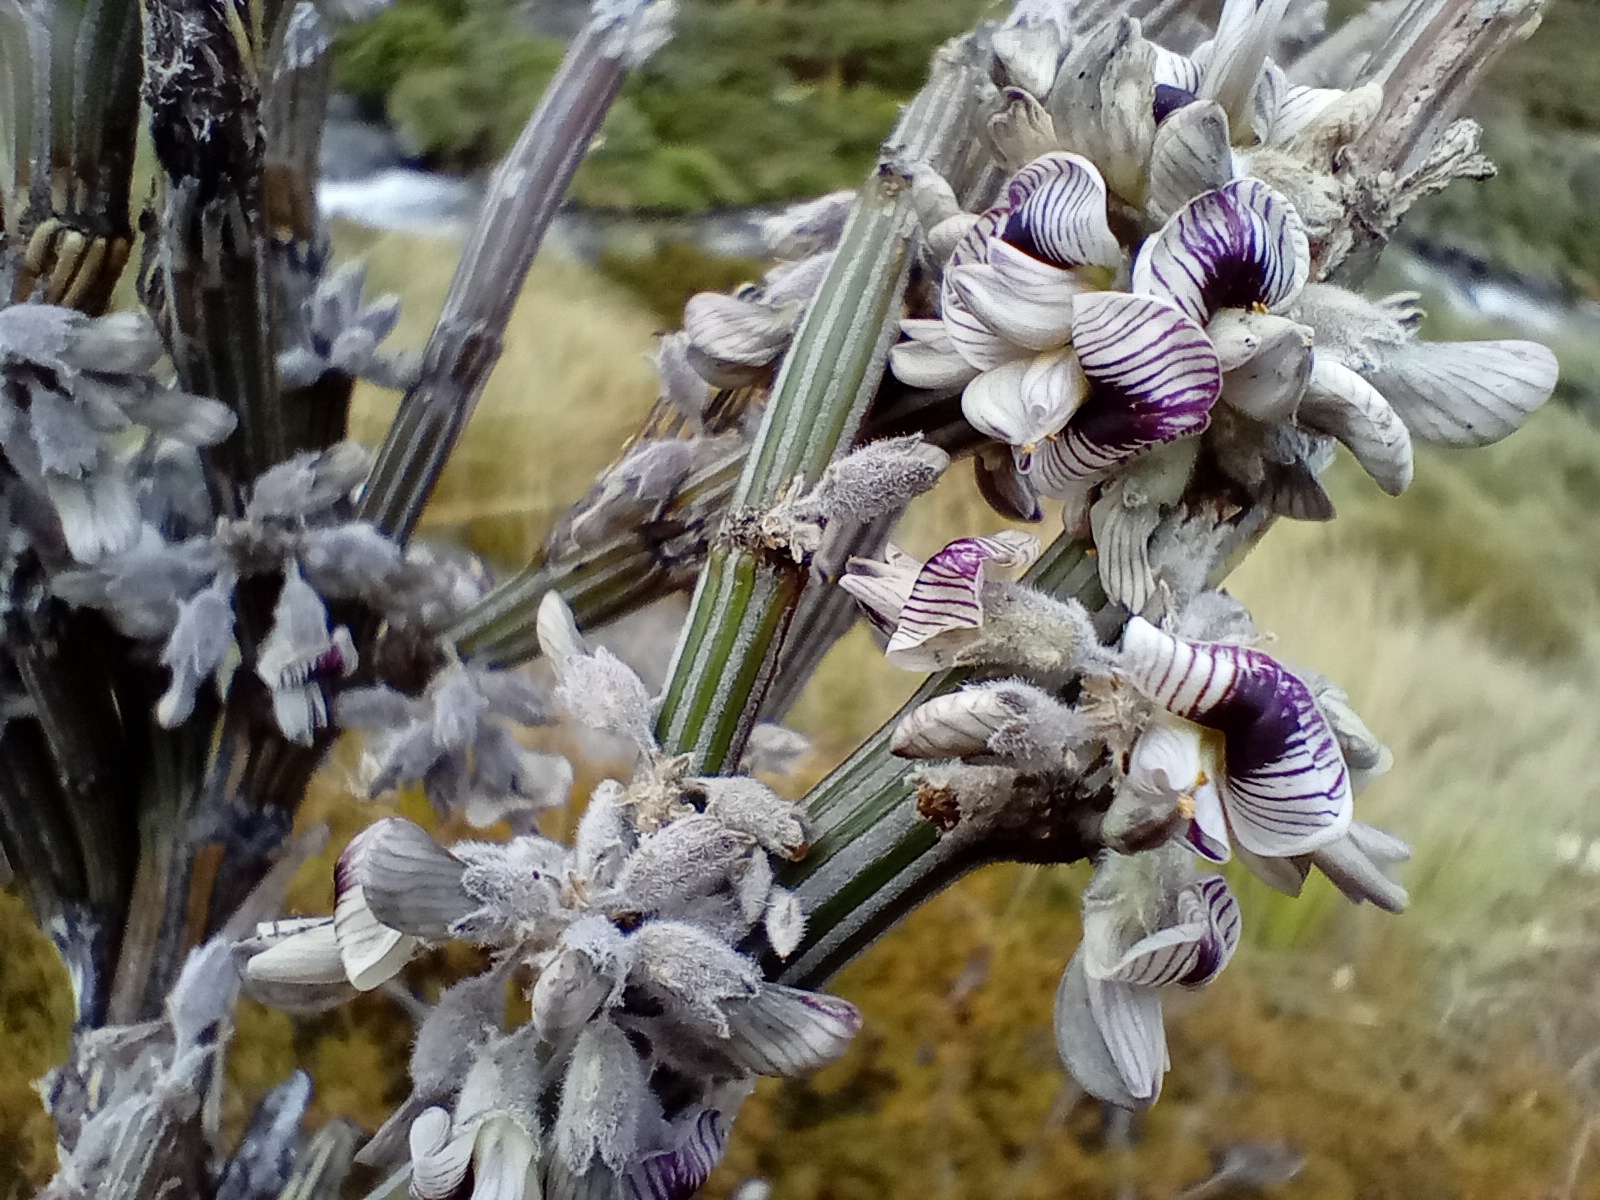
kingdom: Plantae
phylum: Tracheophyta
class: Magnoliopsida
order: Fabales
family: Fabaceae
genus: Carmichaelia
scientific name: Carmichaelia crassicaulis
